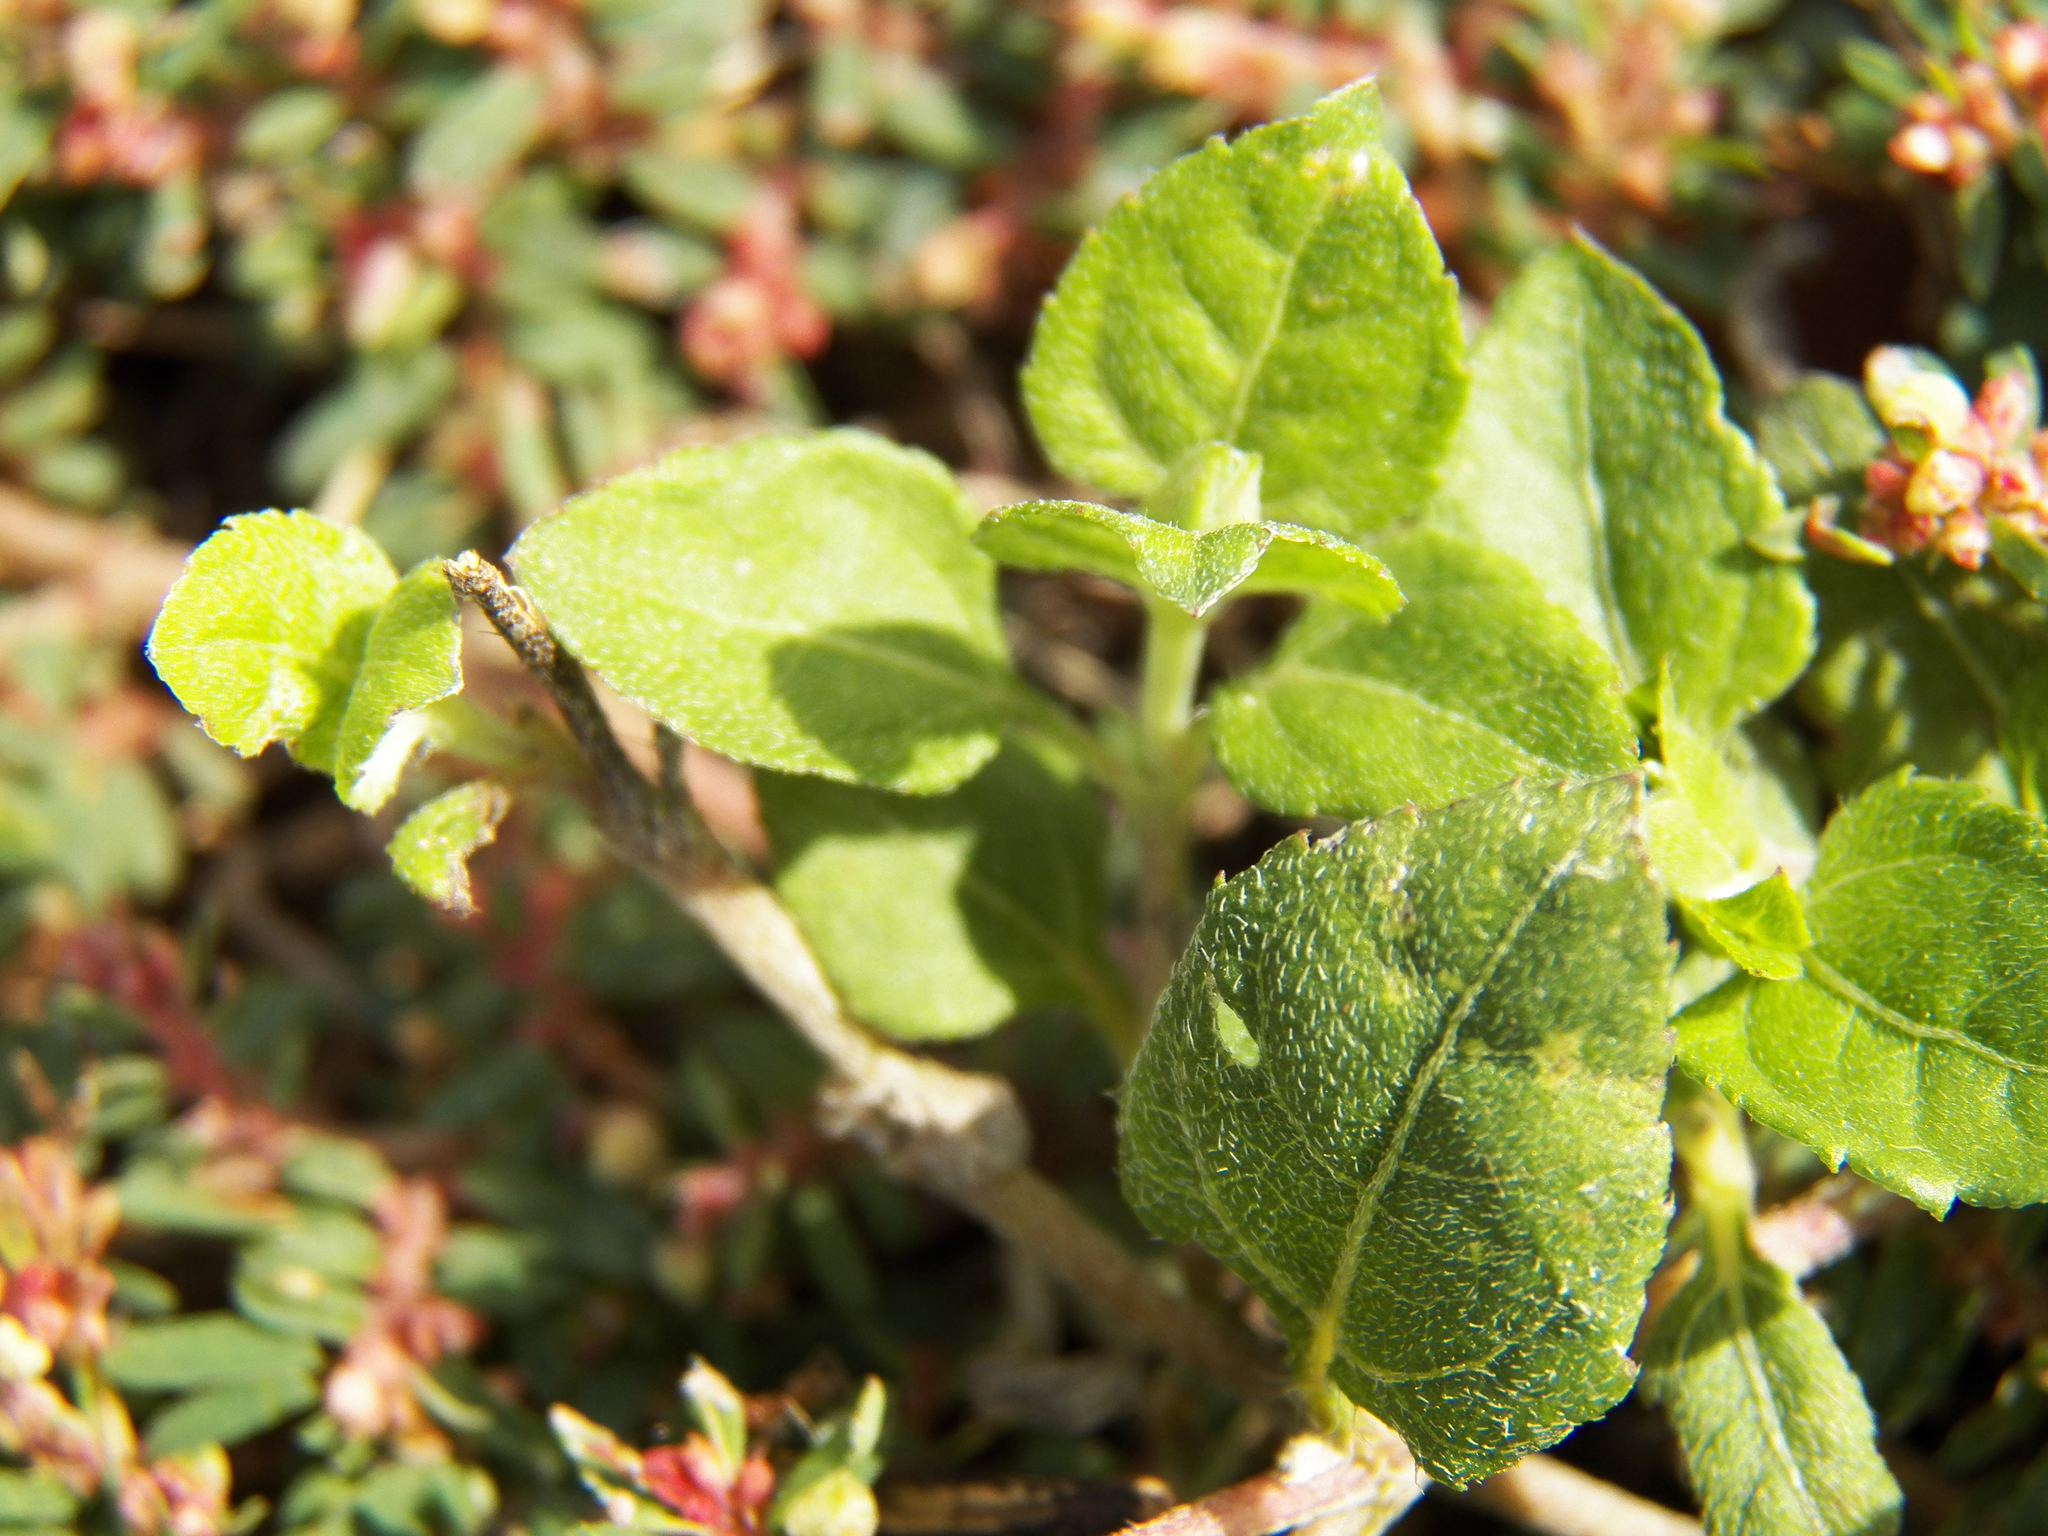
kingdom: Plantae
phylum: Tracheophyta
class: Magnoliopsida
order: Asterales
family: Asteraceae
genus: Calyptocarpus
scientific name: Calyptocarpus vialis
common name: Straggler daisy
